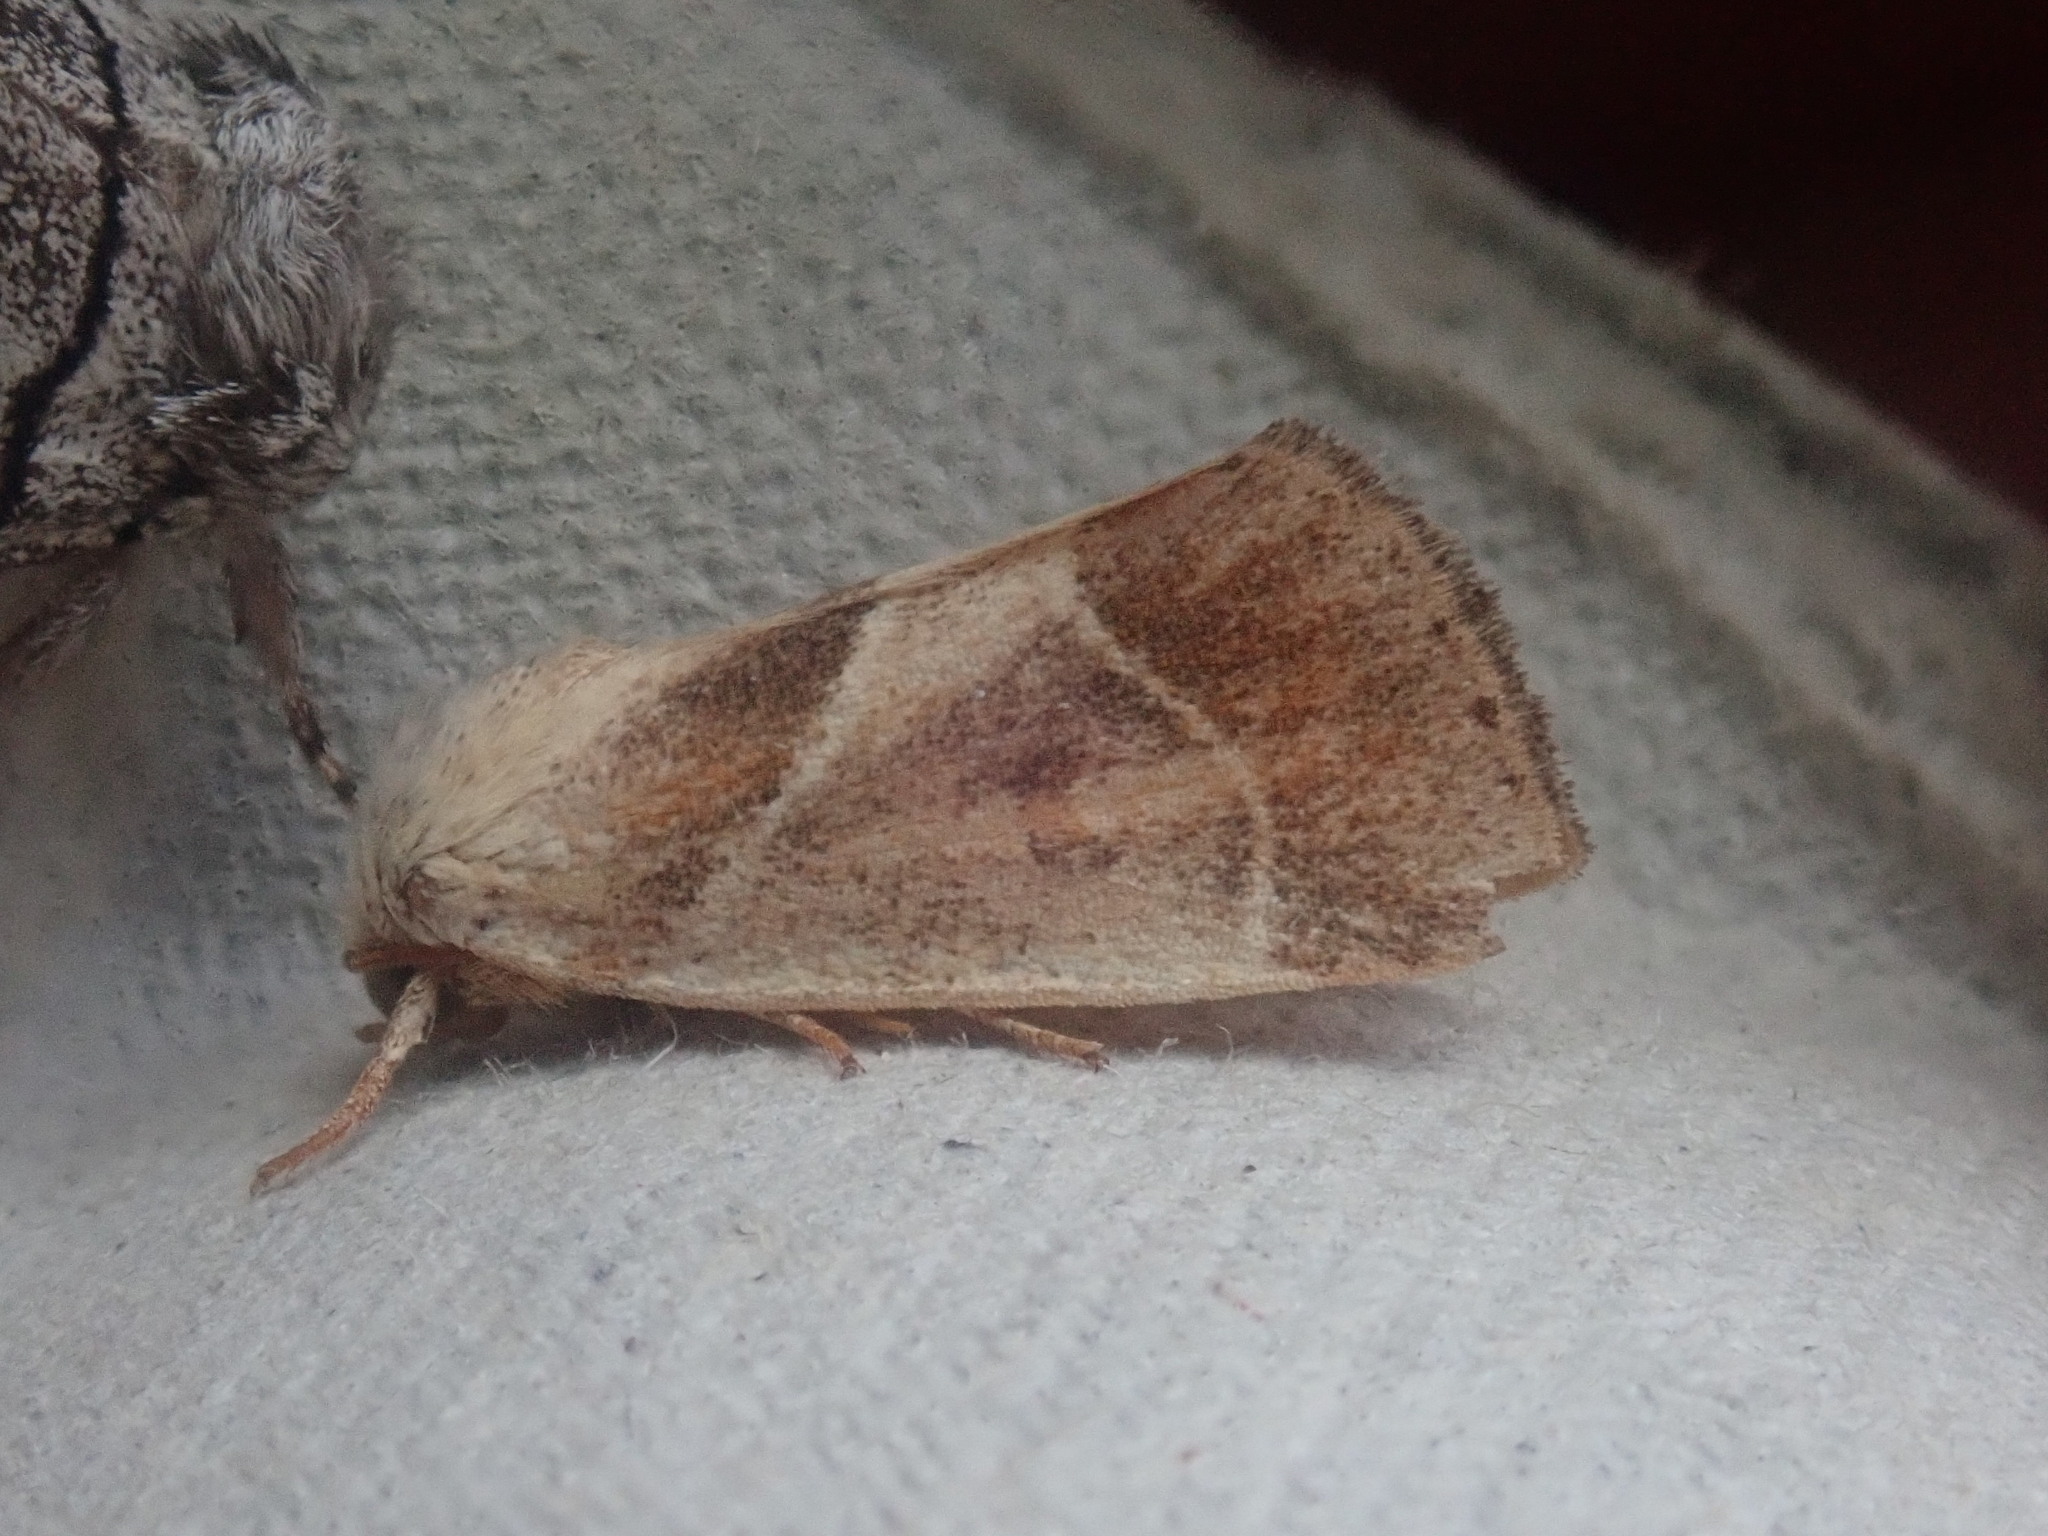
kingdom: Animalia
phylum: Arthropoda
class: Insecta
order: Lepidoptera
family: Noctuidae
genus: Cosmia
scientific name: Cosmia calami
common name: American dun-bar moth
